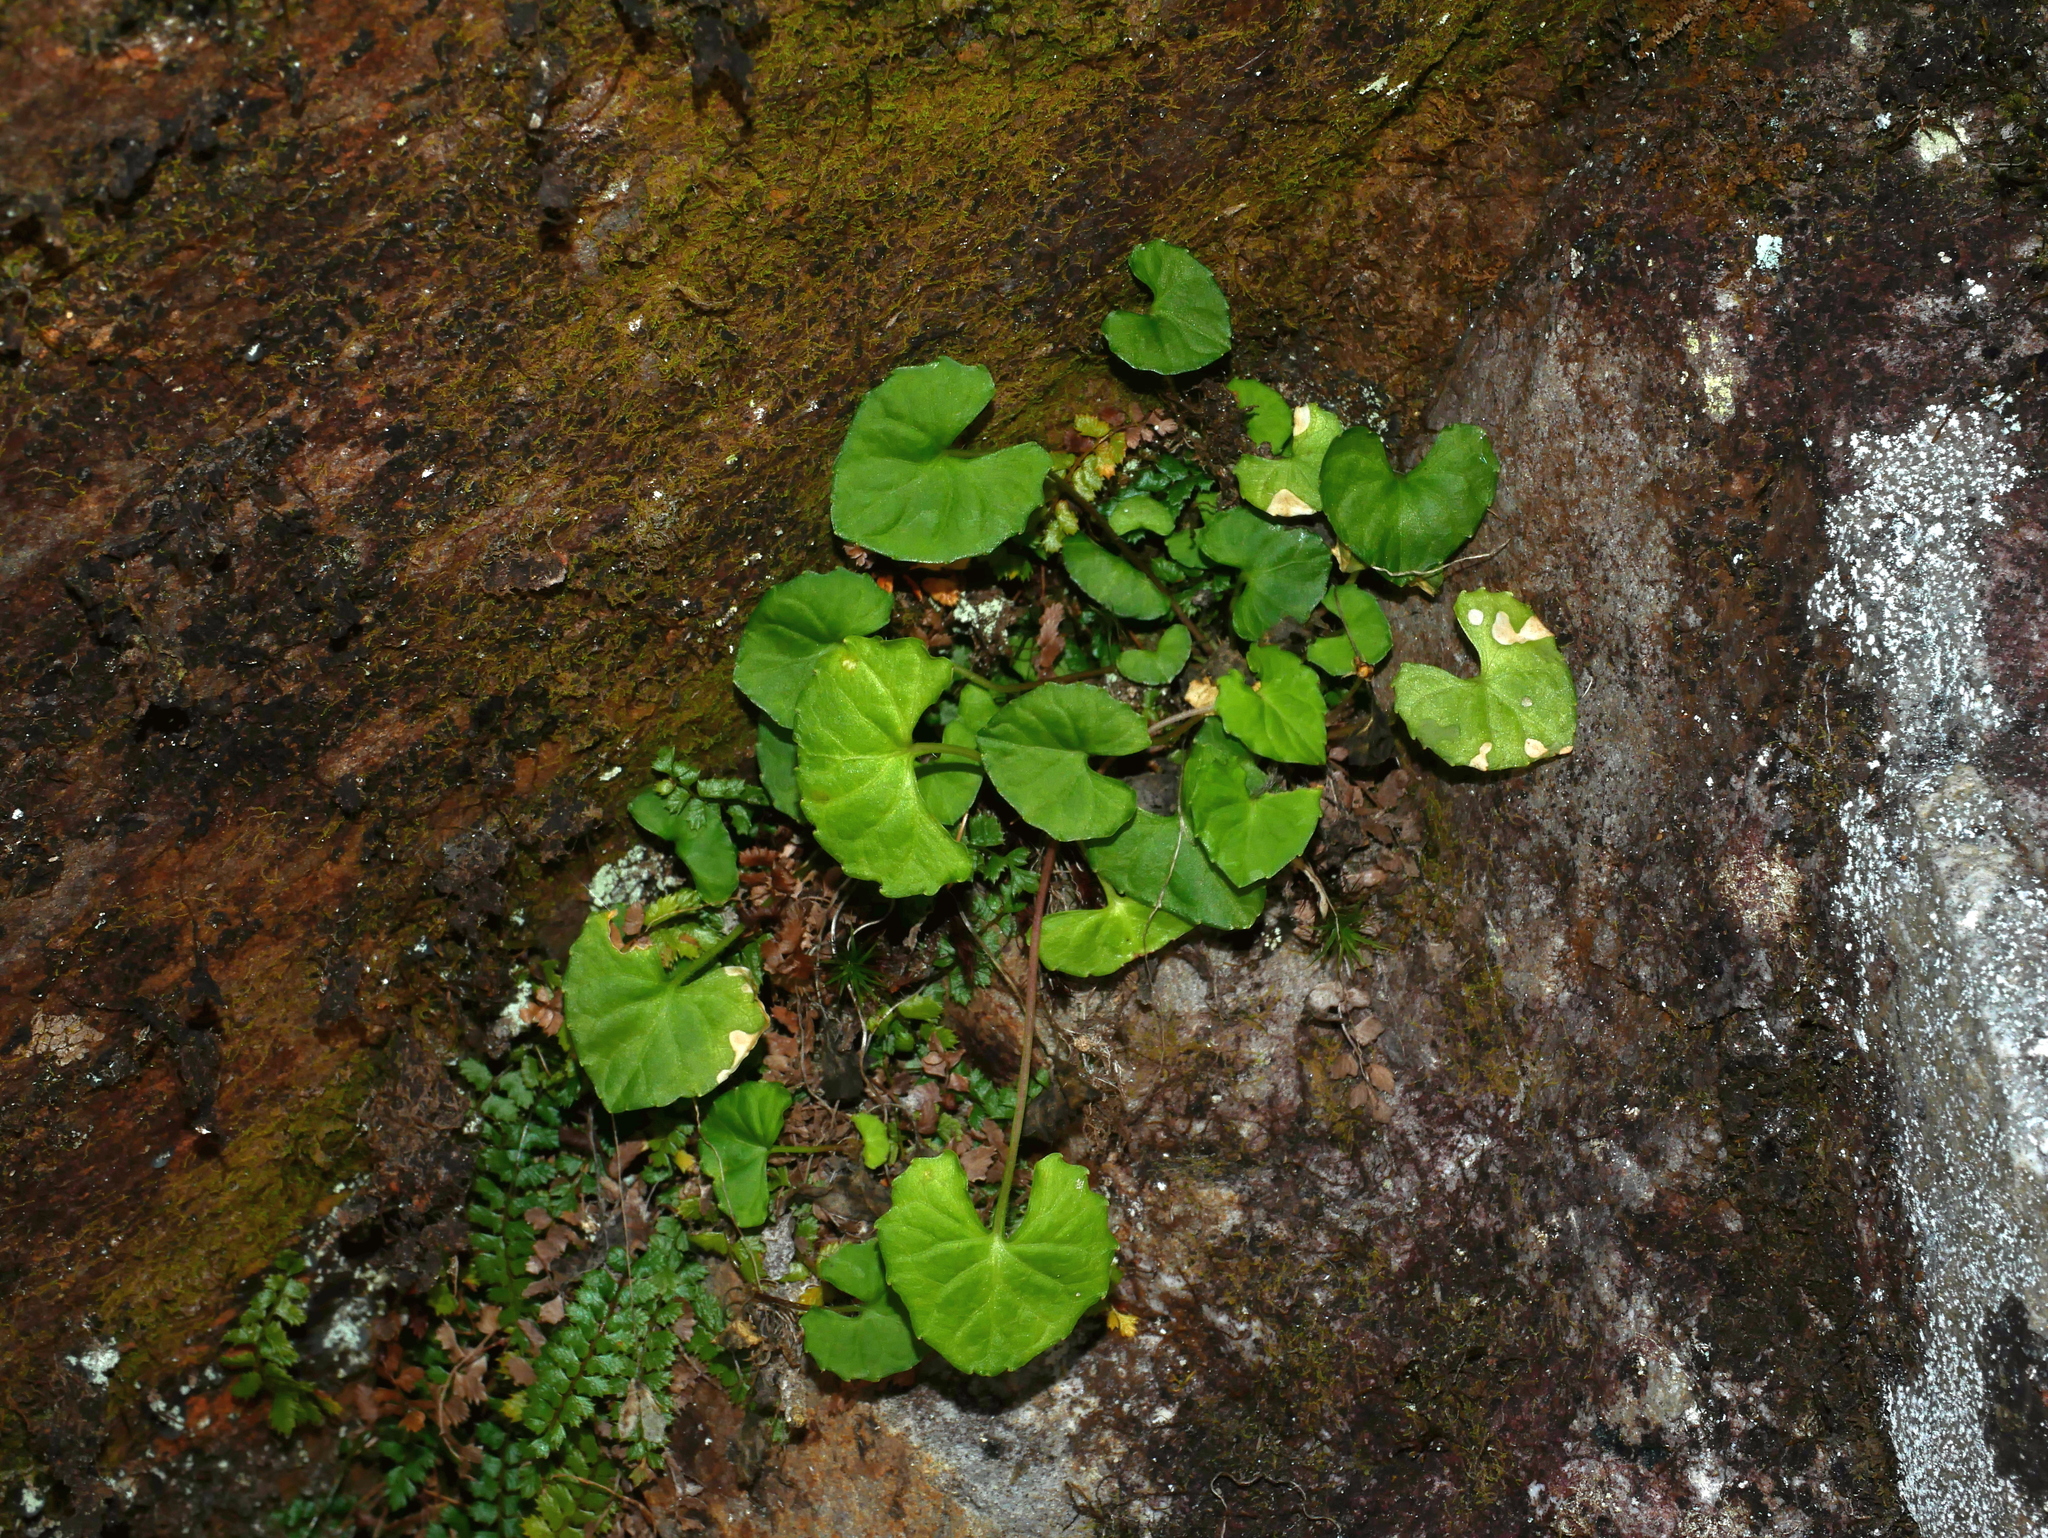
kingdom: Plantae
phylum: Tracheophyta
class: Magnoliopsida
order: Malpighiales
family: Violaceae
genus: Viola
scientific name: Viola senzanensis
